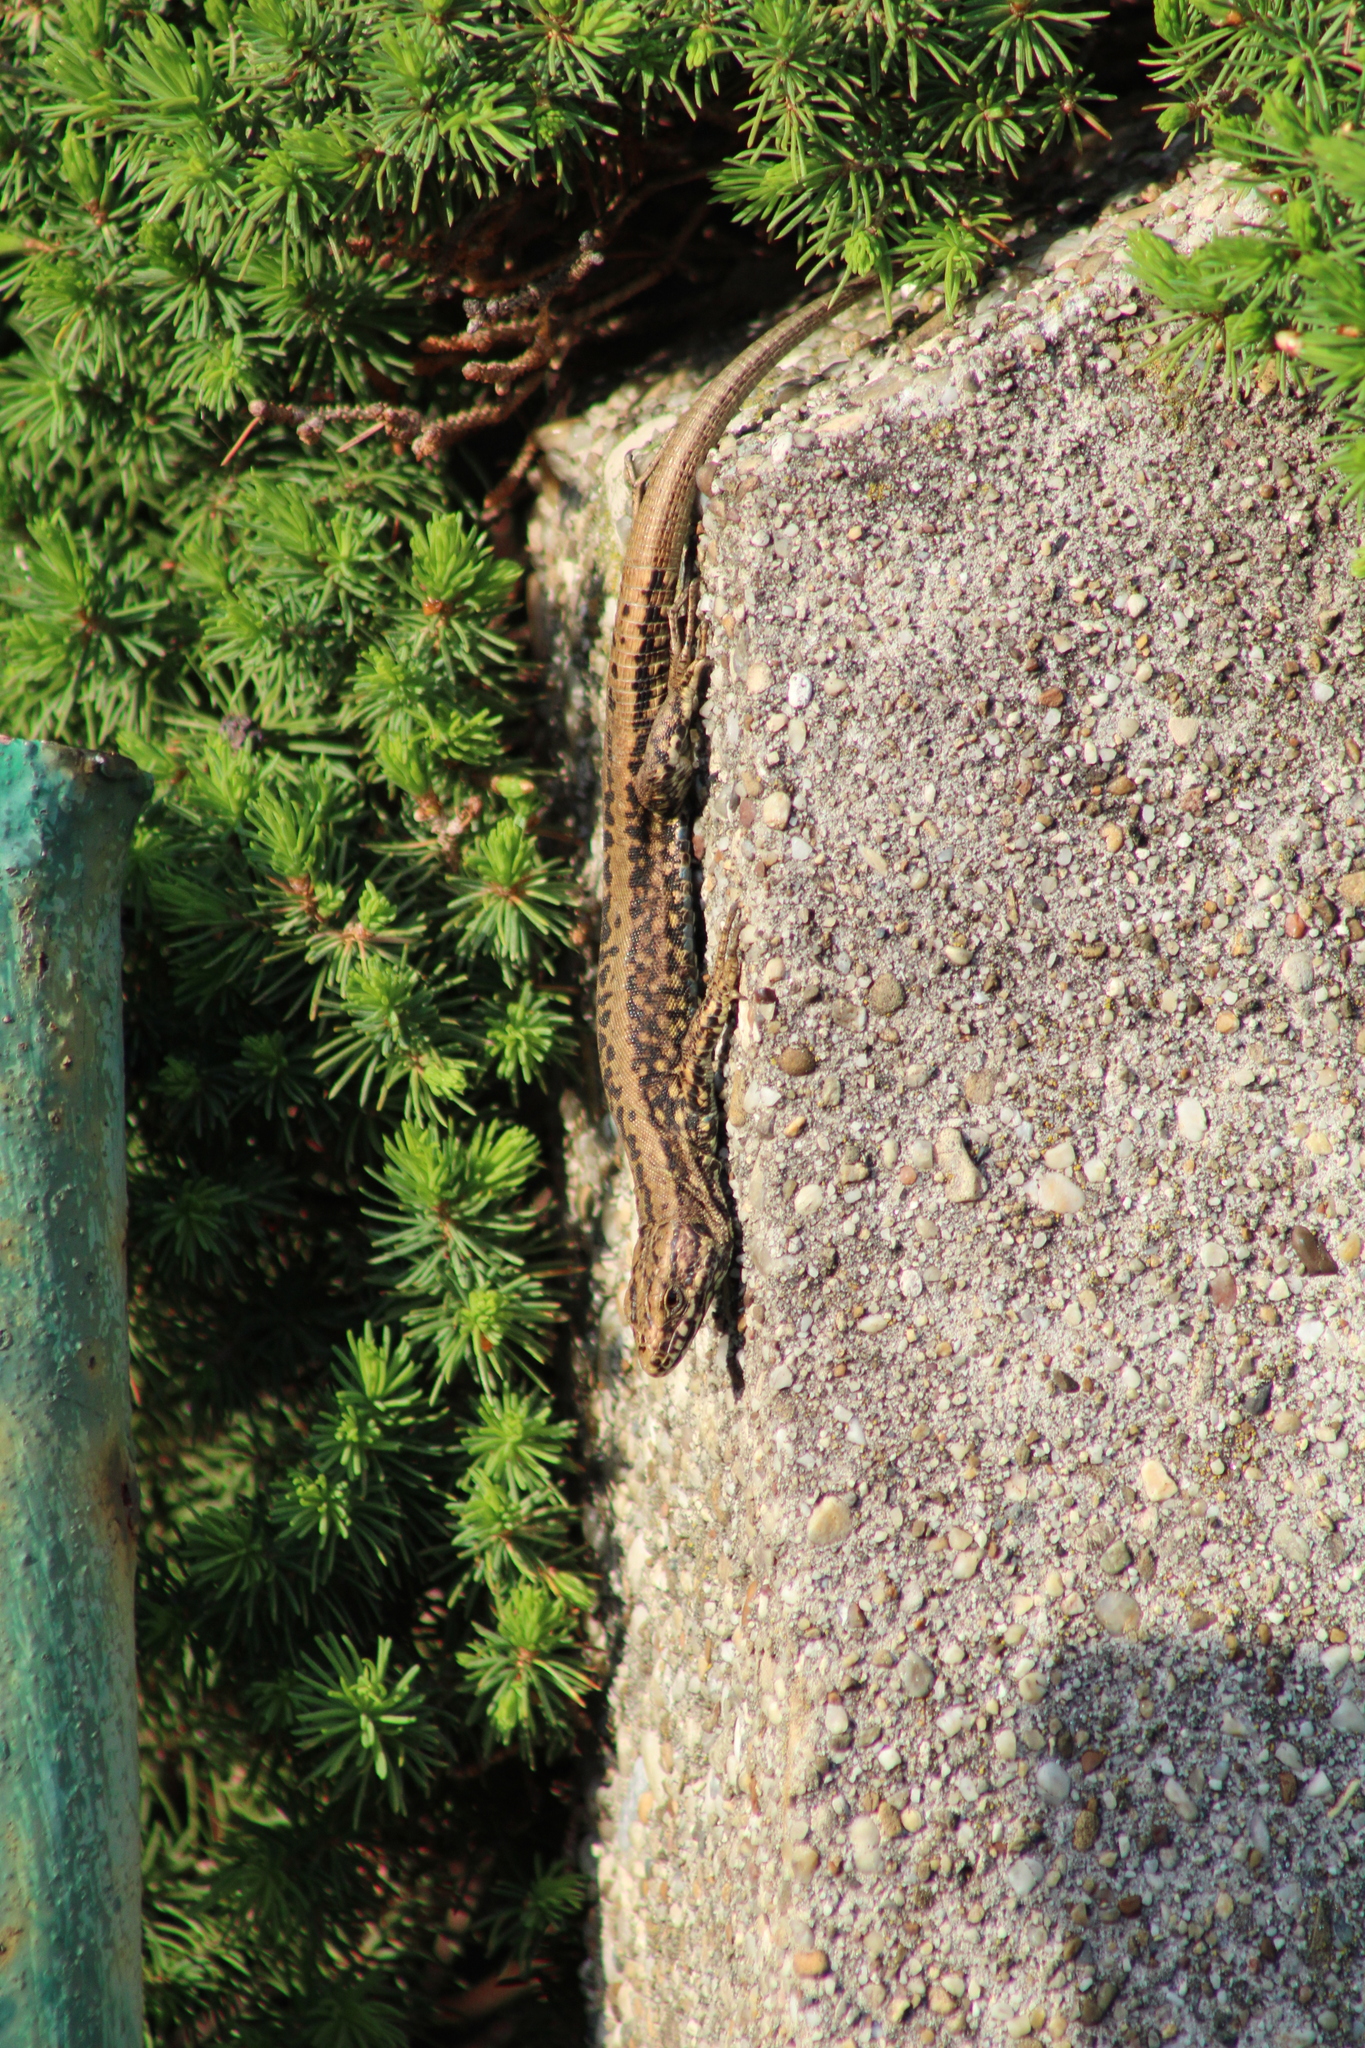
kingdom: Animalia
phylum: Chordata
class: Squamata
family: Lacertidae
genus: Podarcis
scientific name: Podarcis muralis
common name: Common wall lizard
